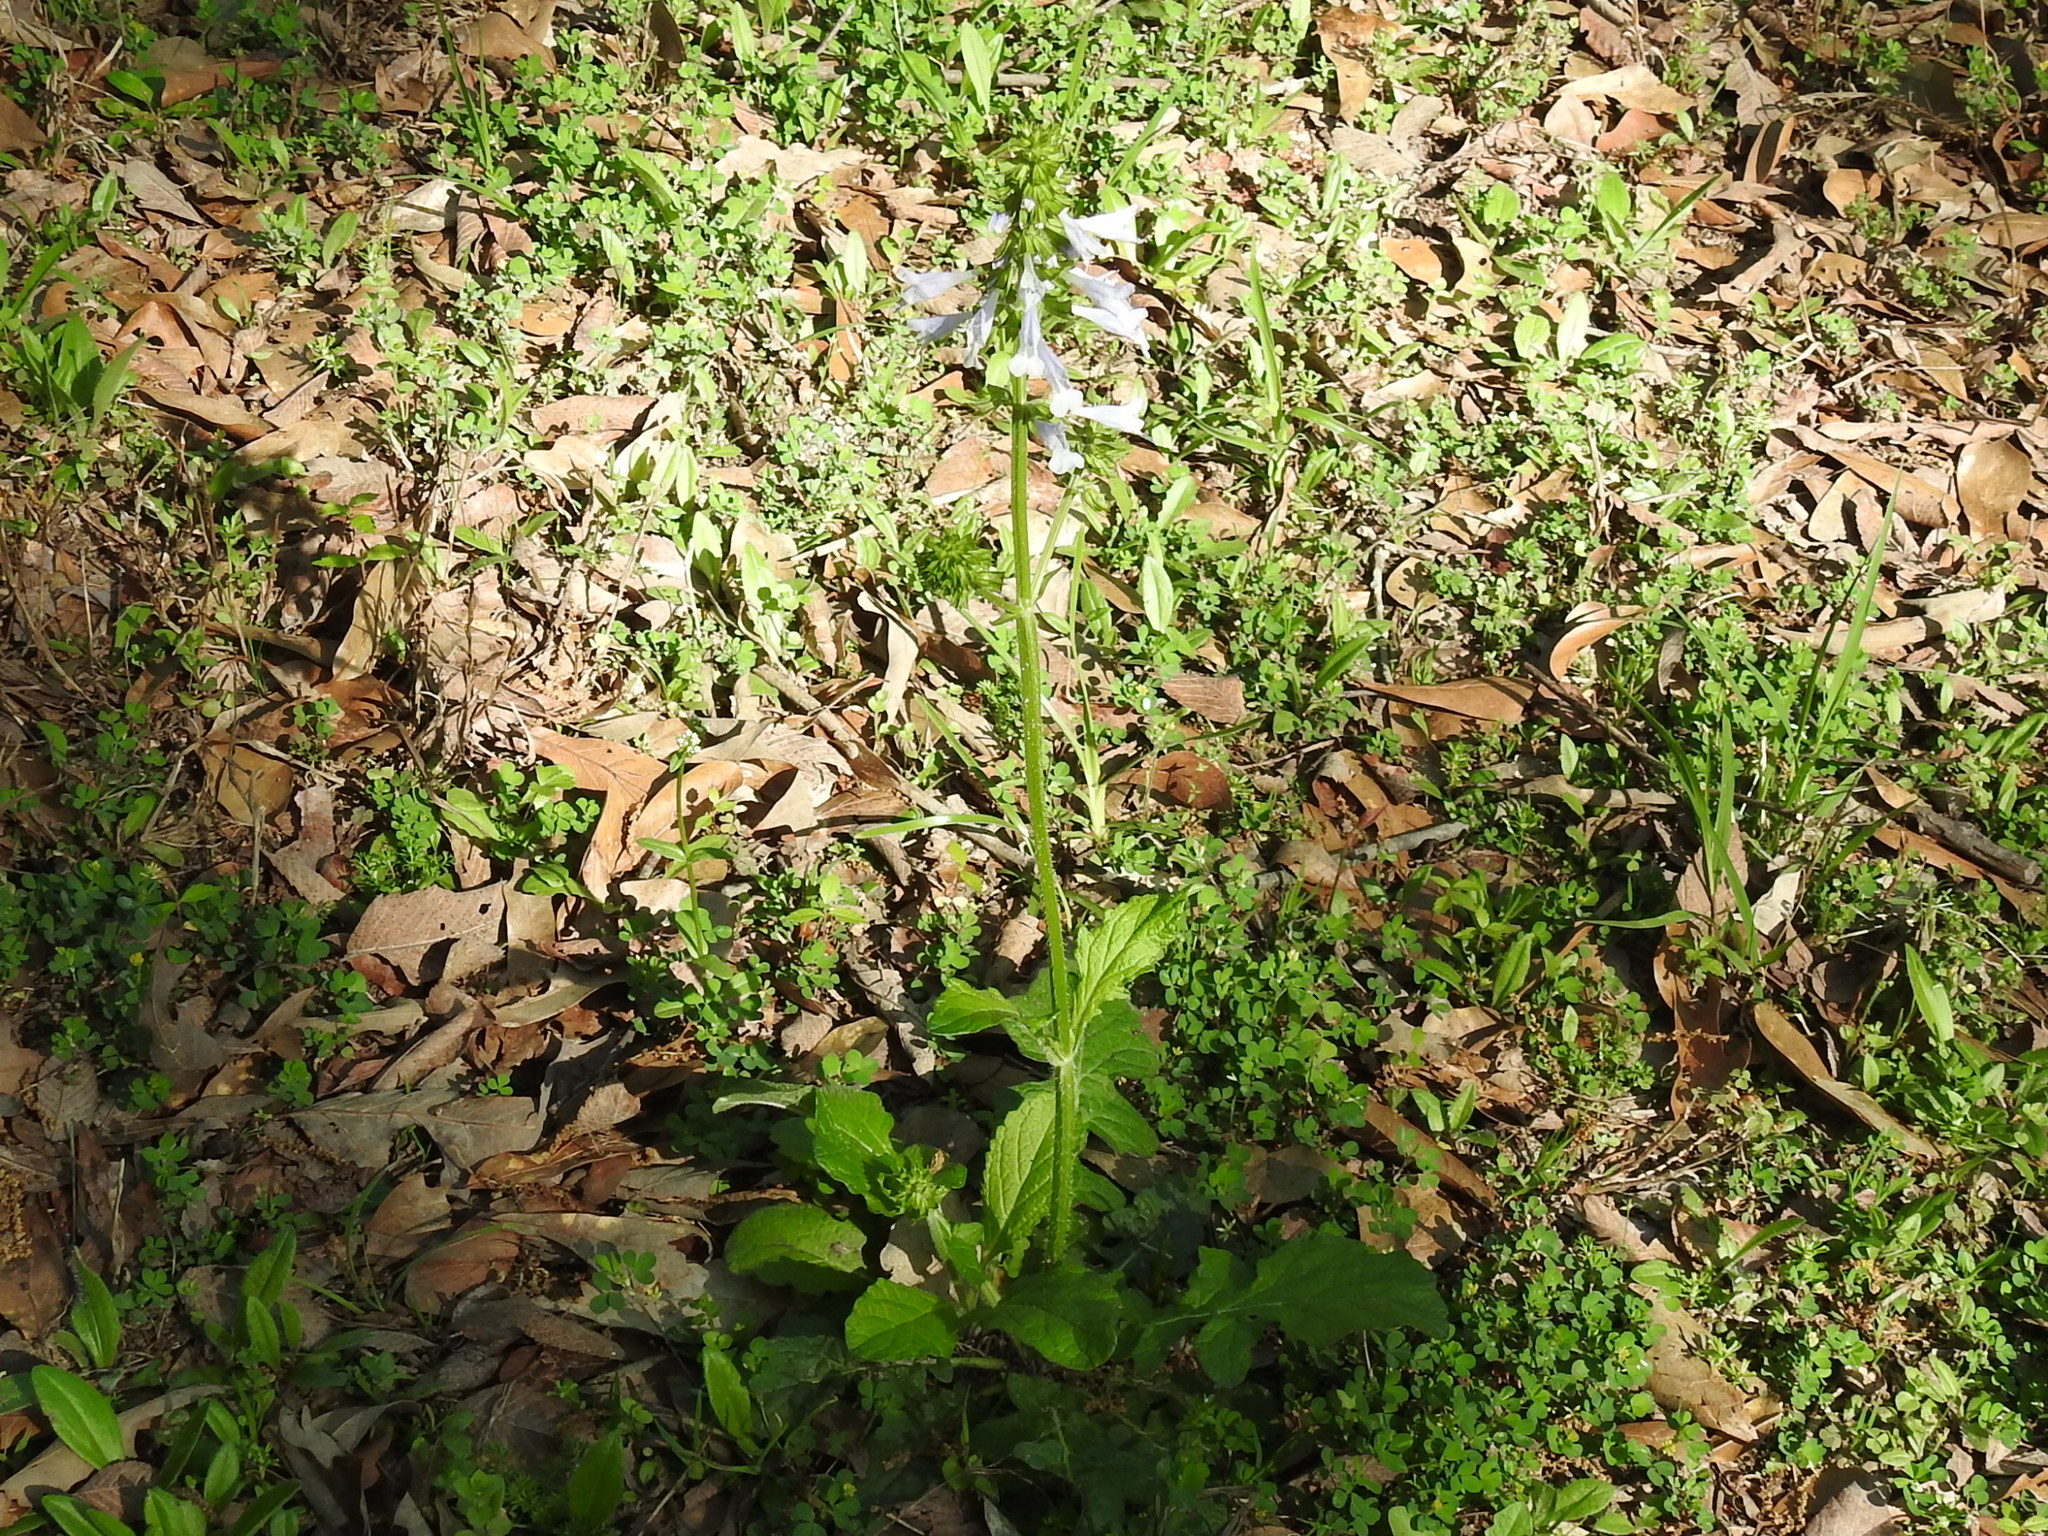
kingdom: Plantae
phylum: Tracheophyta
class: Magnoliopsida
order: Lamiales
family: Lamiaceae
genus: Salvia
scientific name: Salvia lyrata
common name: Cancerweed
